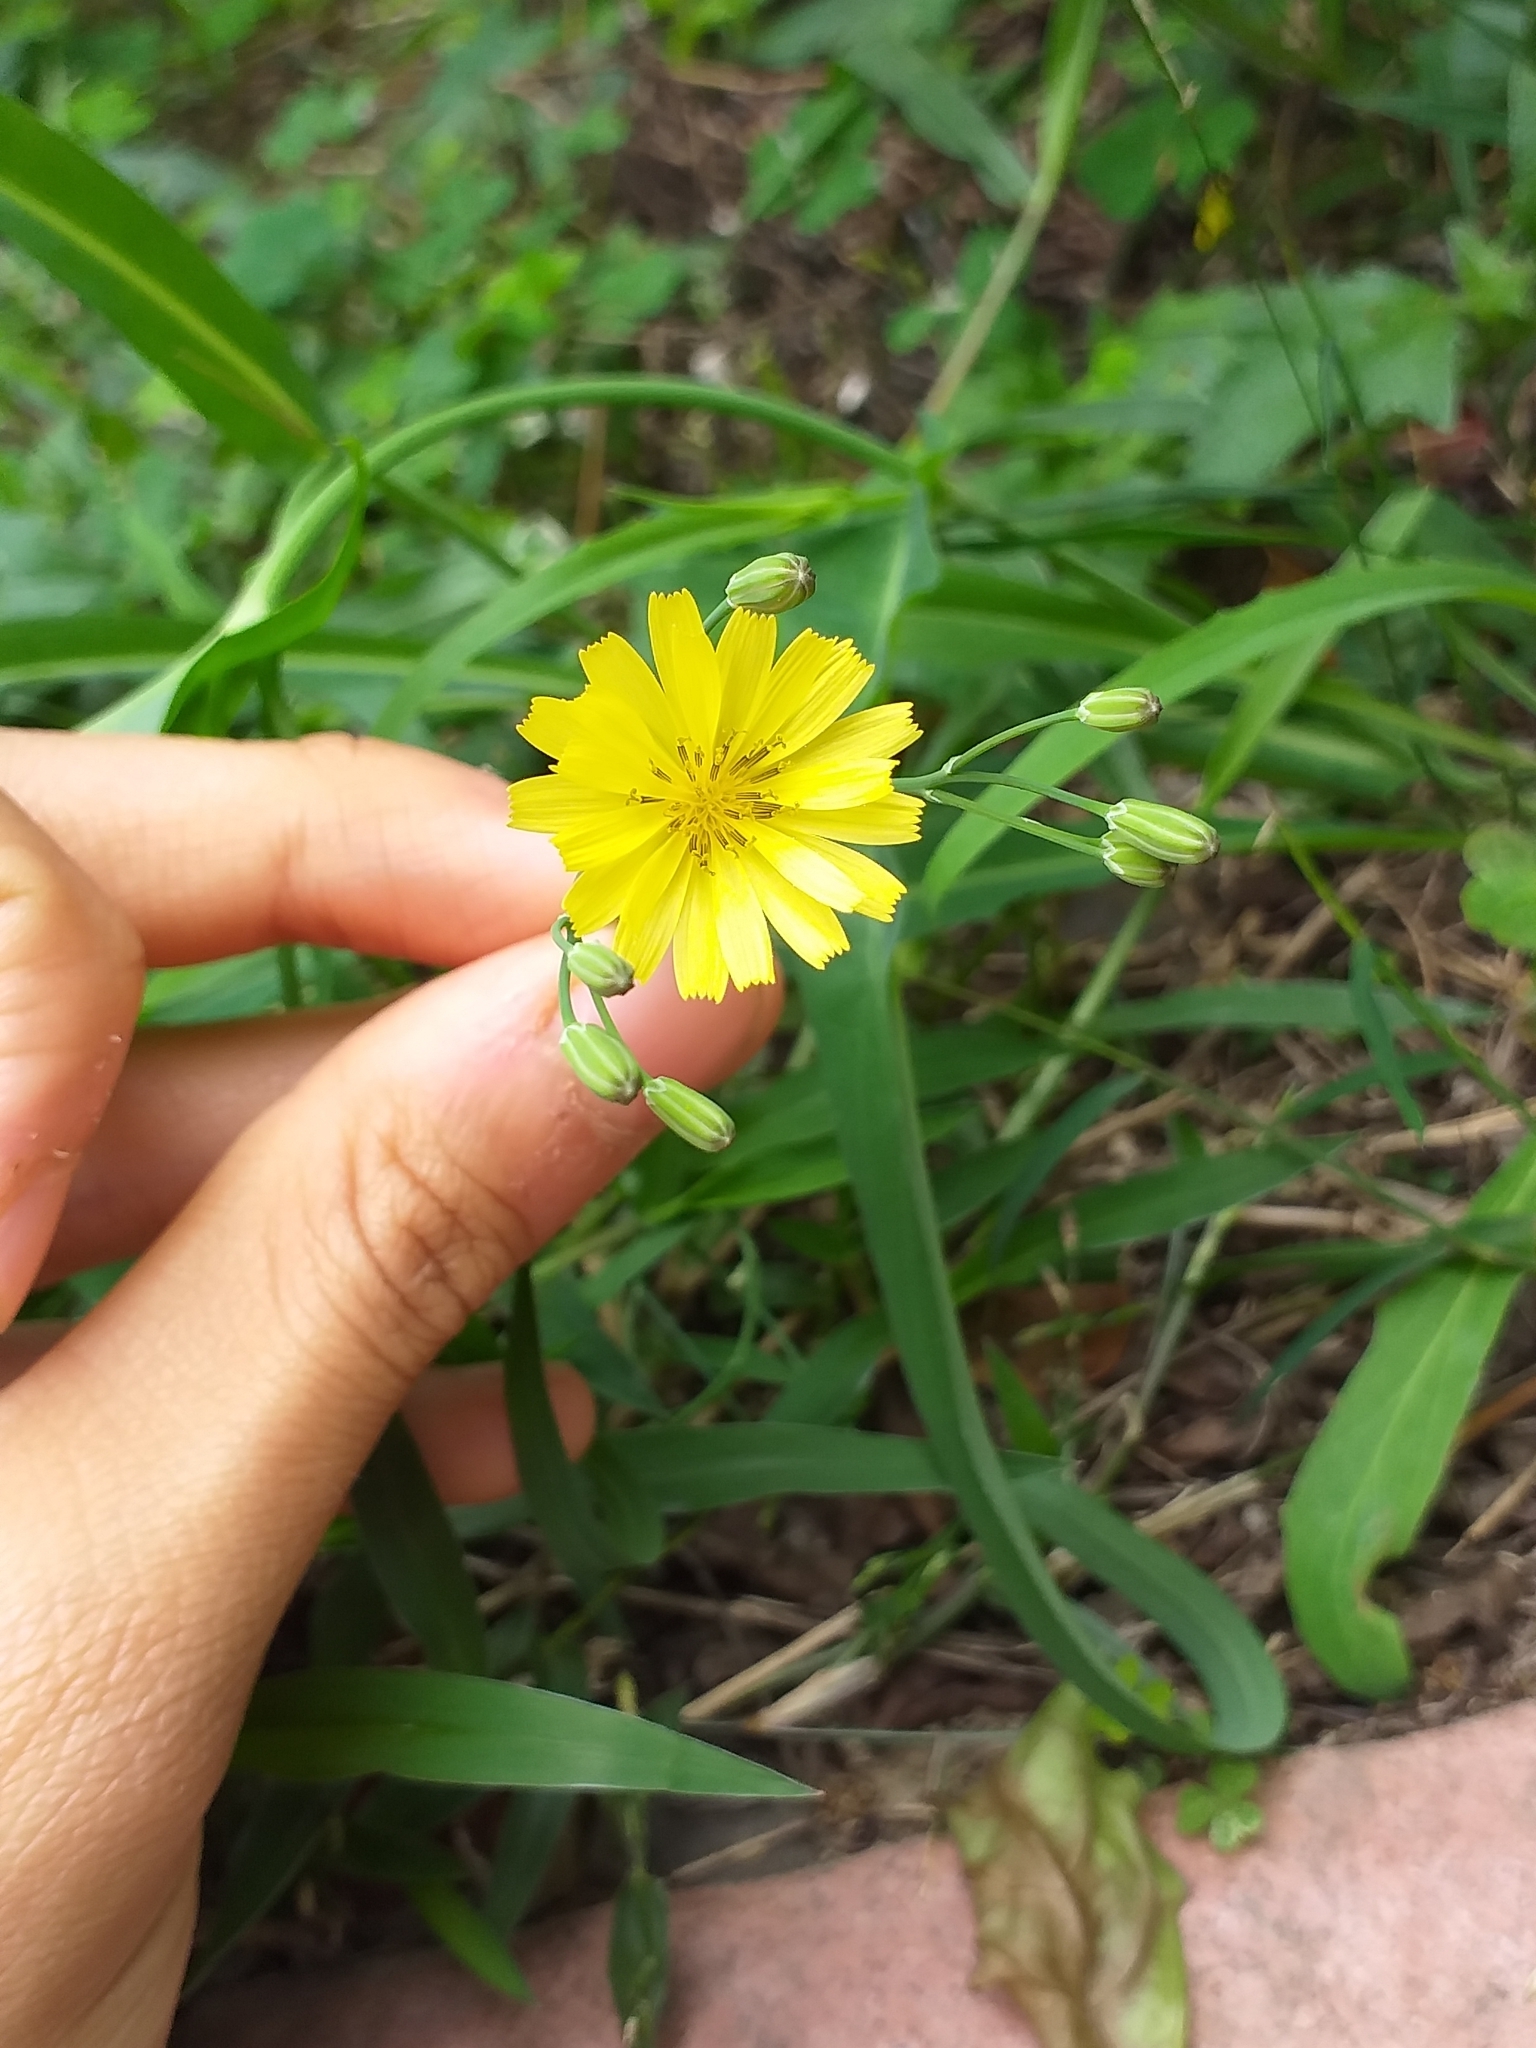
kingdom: Plantae
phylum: Tracheophyta
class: Magnoliopsida
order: Asterales
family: Asteraceae
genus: Ixeris
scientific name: Ixeris chinensis
